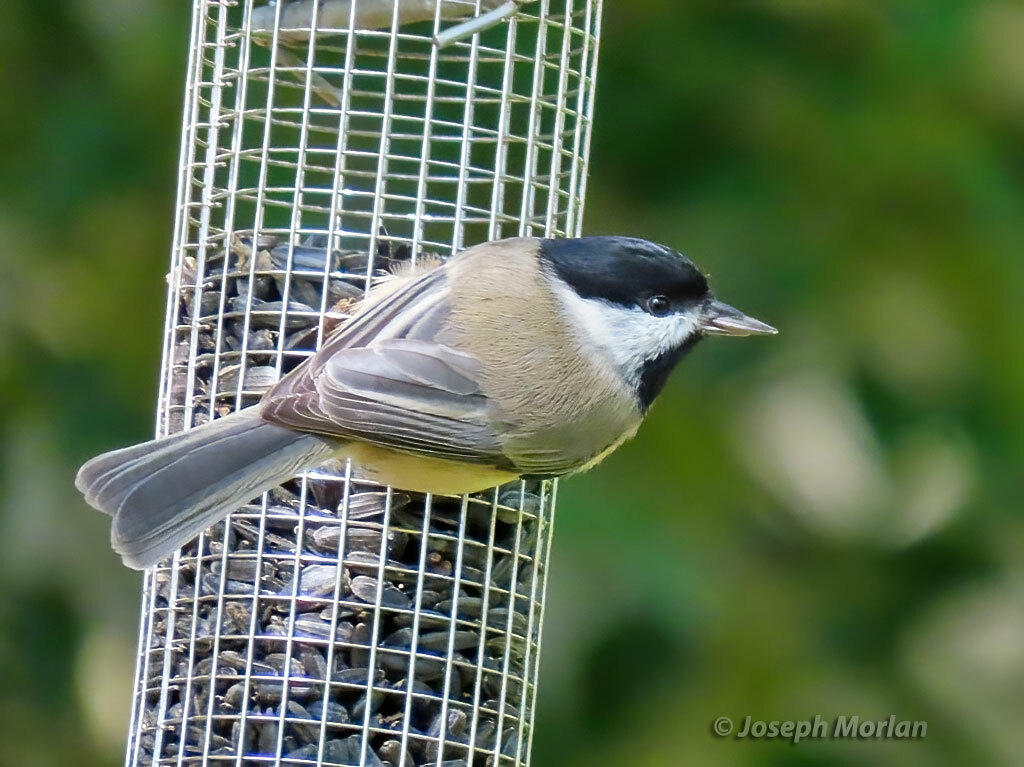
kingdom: Animalia
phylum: Chordata
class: Aves
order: Passeriformes
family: Paridae
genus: Poecile
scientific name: Poecile carolinensis
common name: Carolina chickadee
